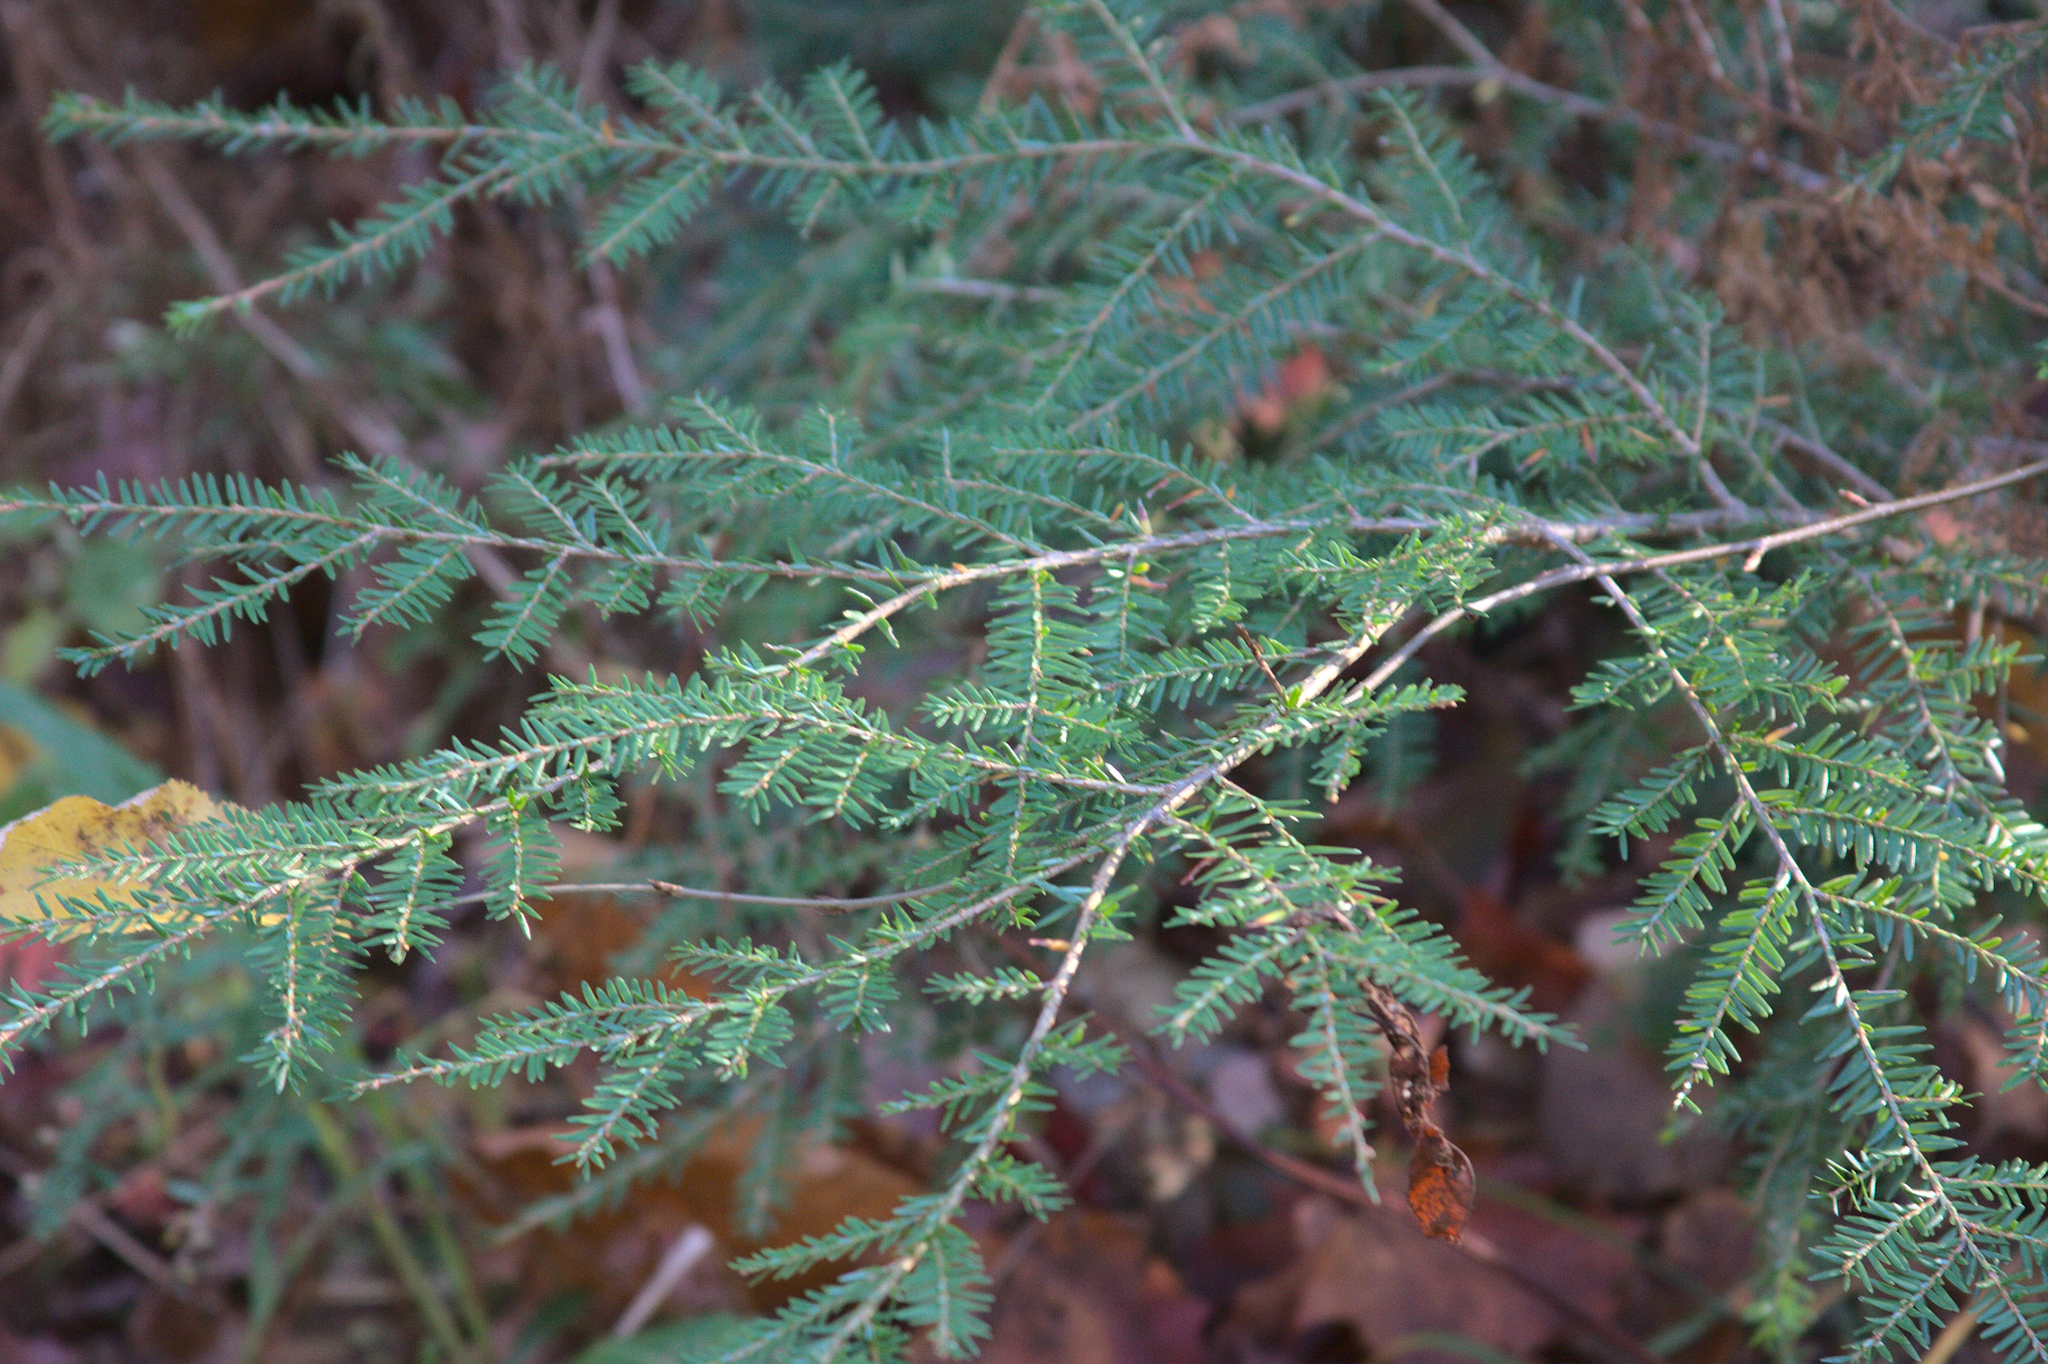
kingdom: Plantae
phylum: Tracheophyta
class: Pinopsida
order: Pinales
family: Pinaceae
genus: Tsuga
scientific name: Tsuga canadensis
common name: Eastern hemlock
